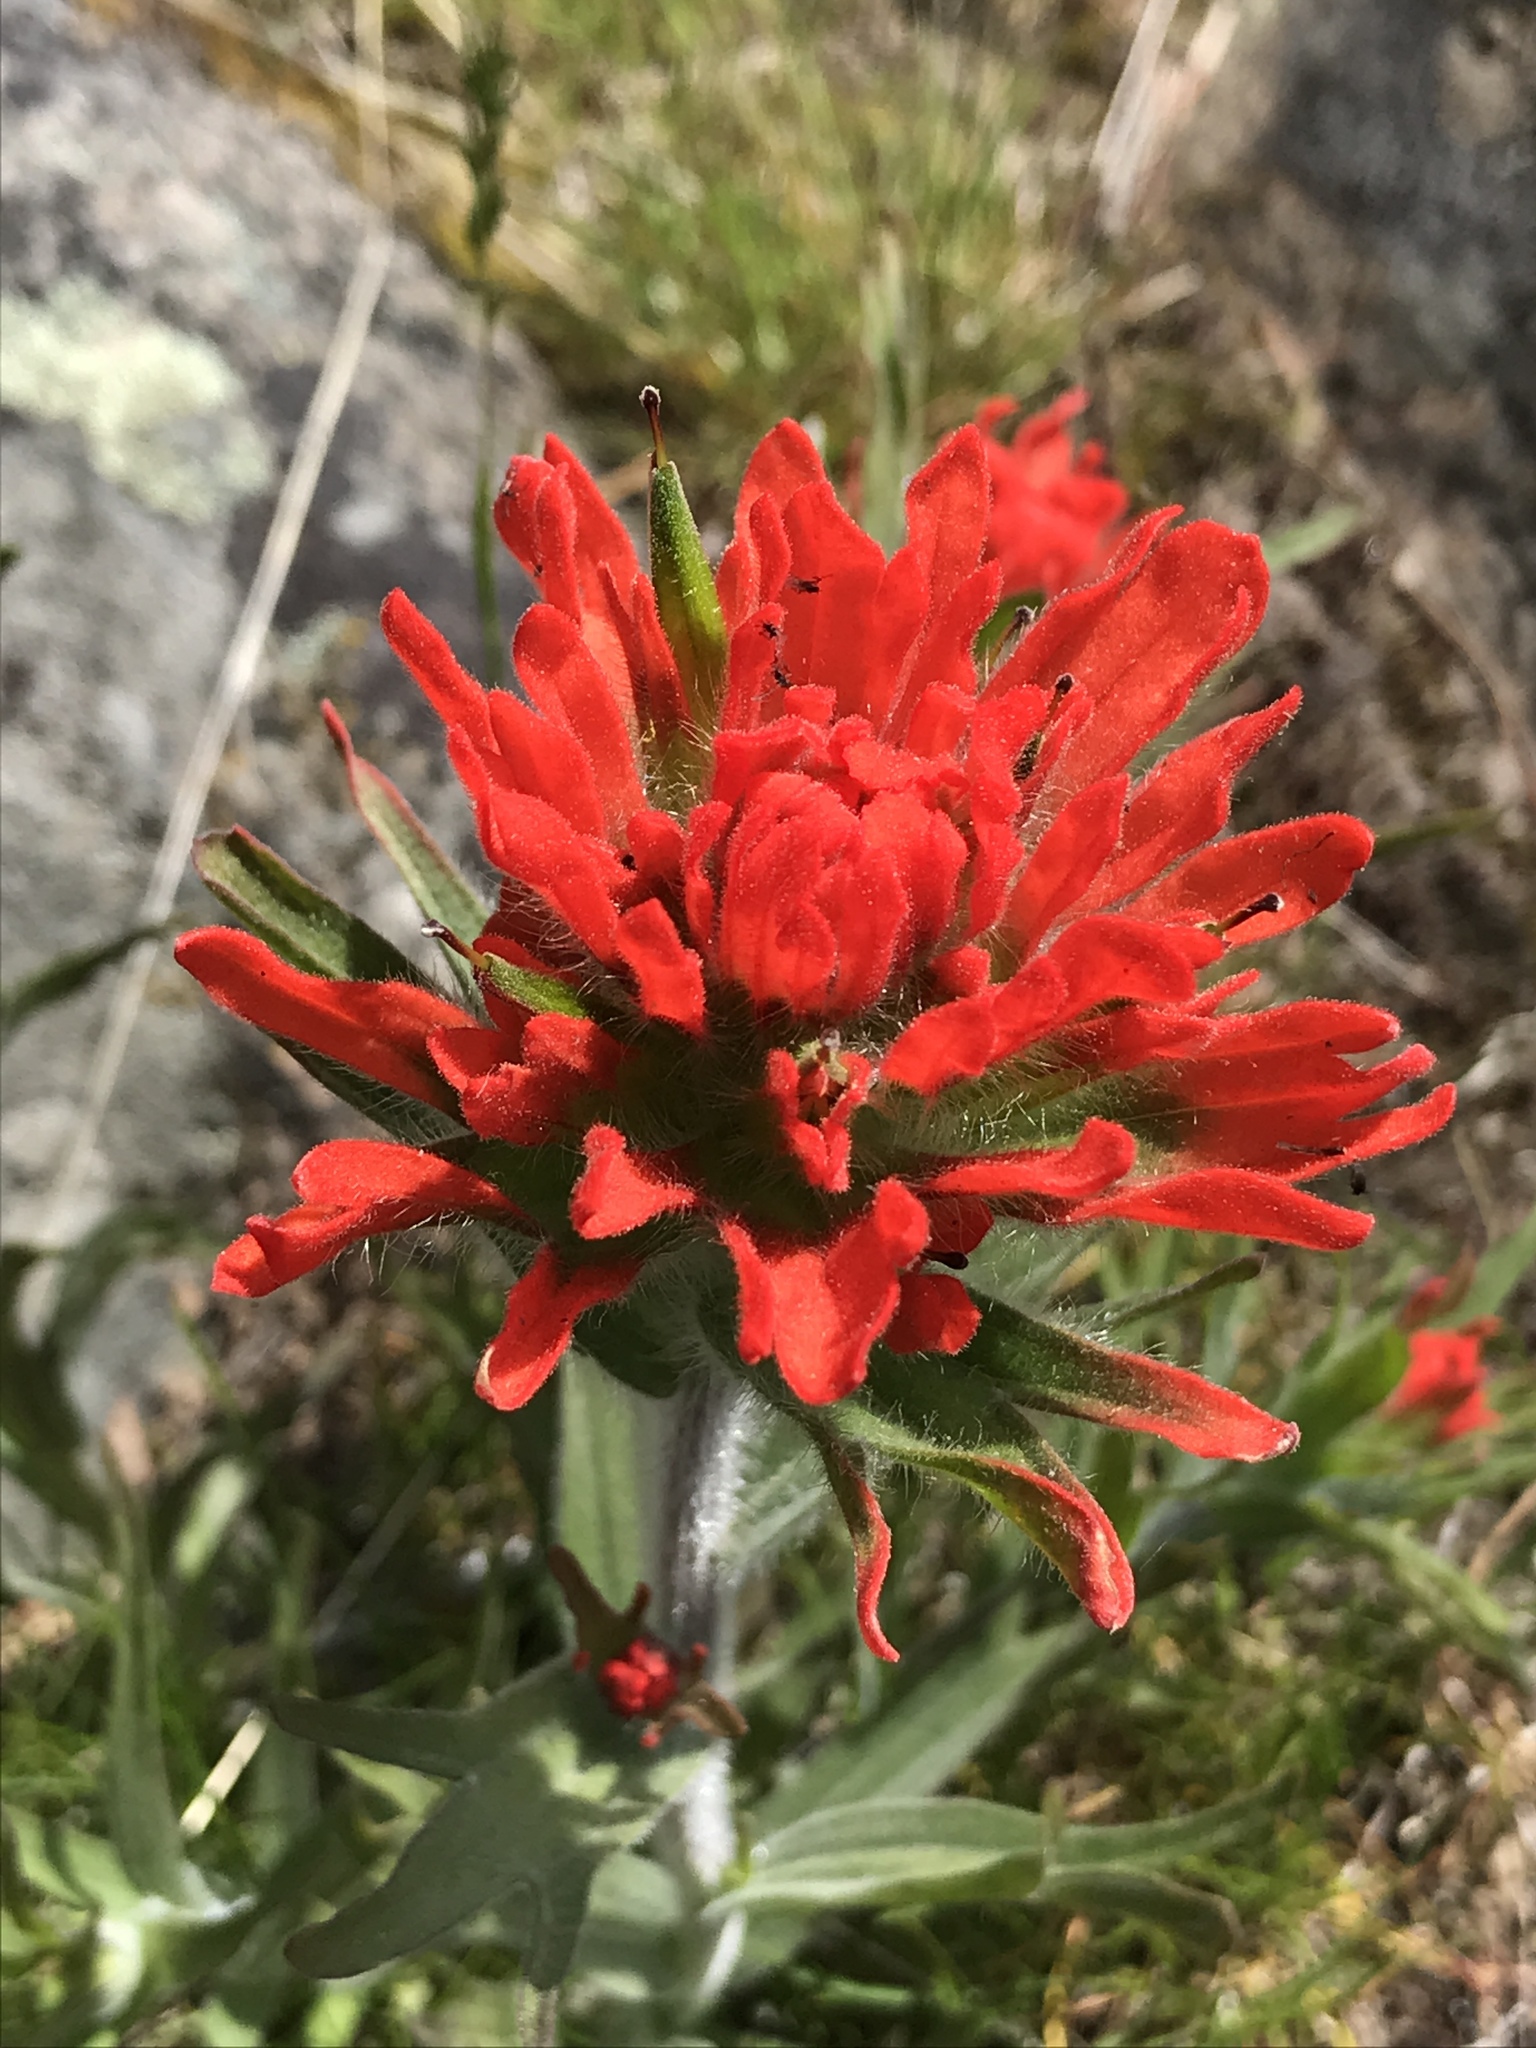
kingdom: Plantae
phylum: Tracheophyta
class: Magnoliopsida
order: Lamiales
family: Orobanchaceae
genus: Castilleja
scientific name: Castilleja hispida
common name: Bristly paintbrush
